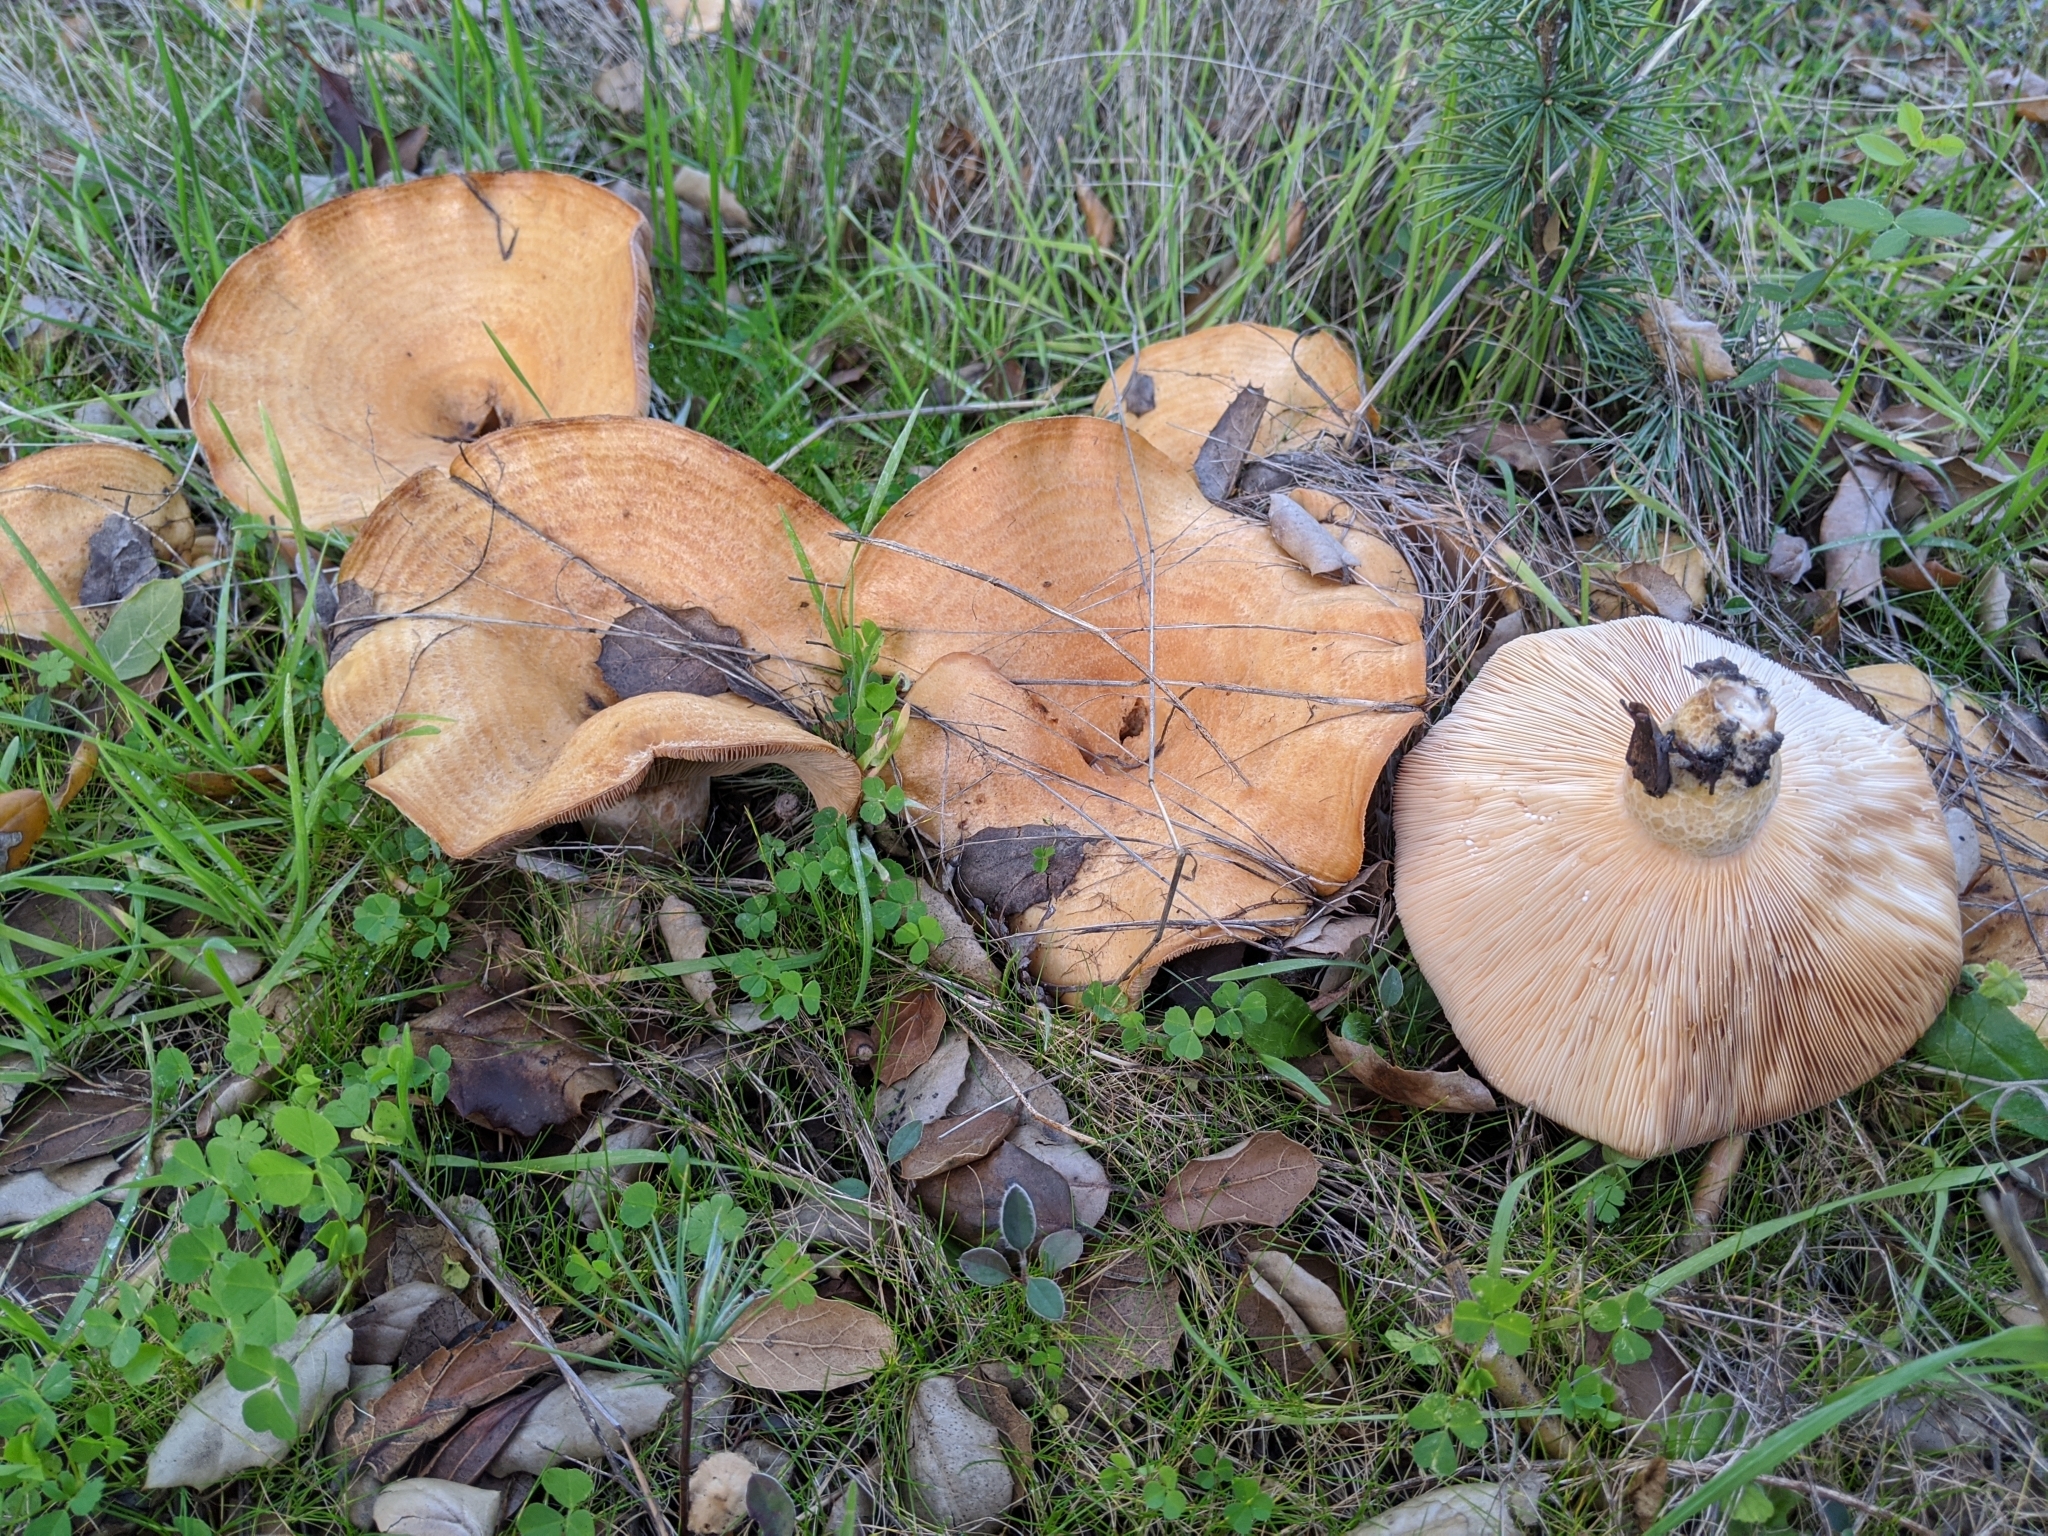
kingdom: Fungi
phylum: Basidiomycota
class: Agaricomycetes
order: Russulales
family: Russulaceae
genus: Lactarius
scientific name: Lactarius alnicola
